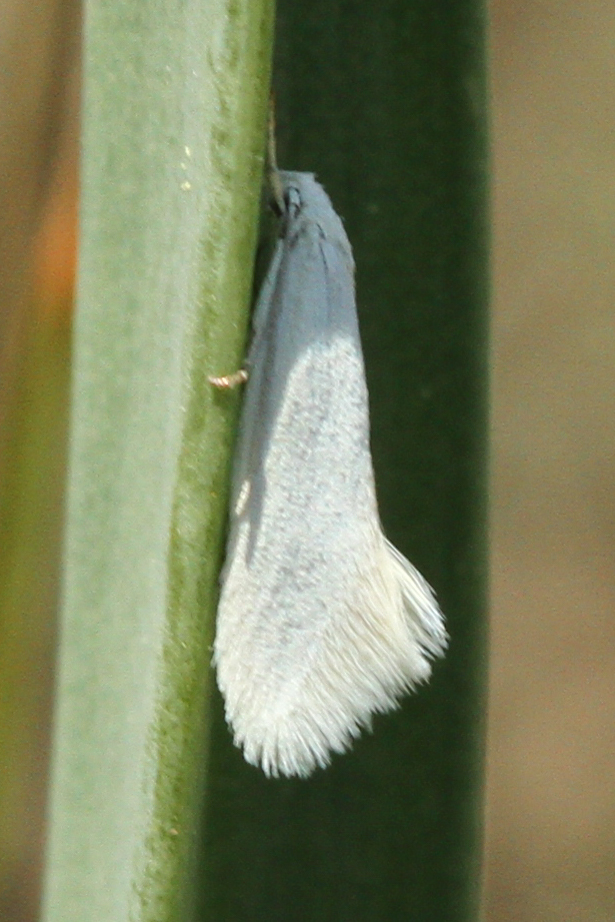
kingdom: Animalia
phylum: Arthropoda
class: Insecta
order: Lepidoptera
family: Elachistidae
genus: Elachista
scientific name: Elachista argentella
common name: Swan-feather dwarf
